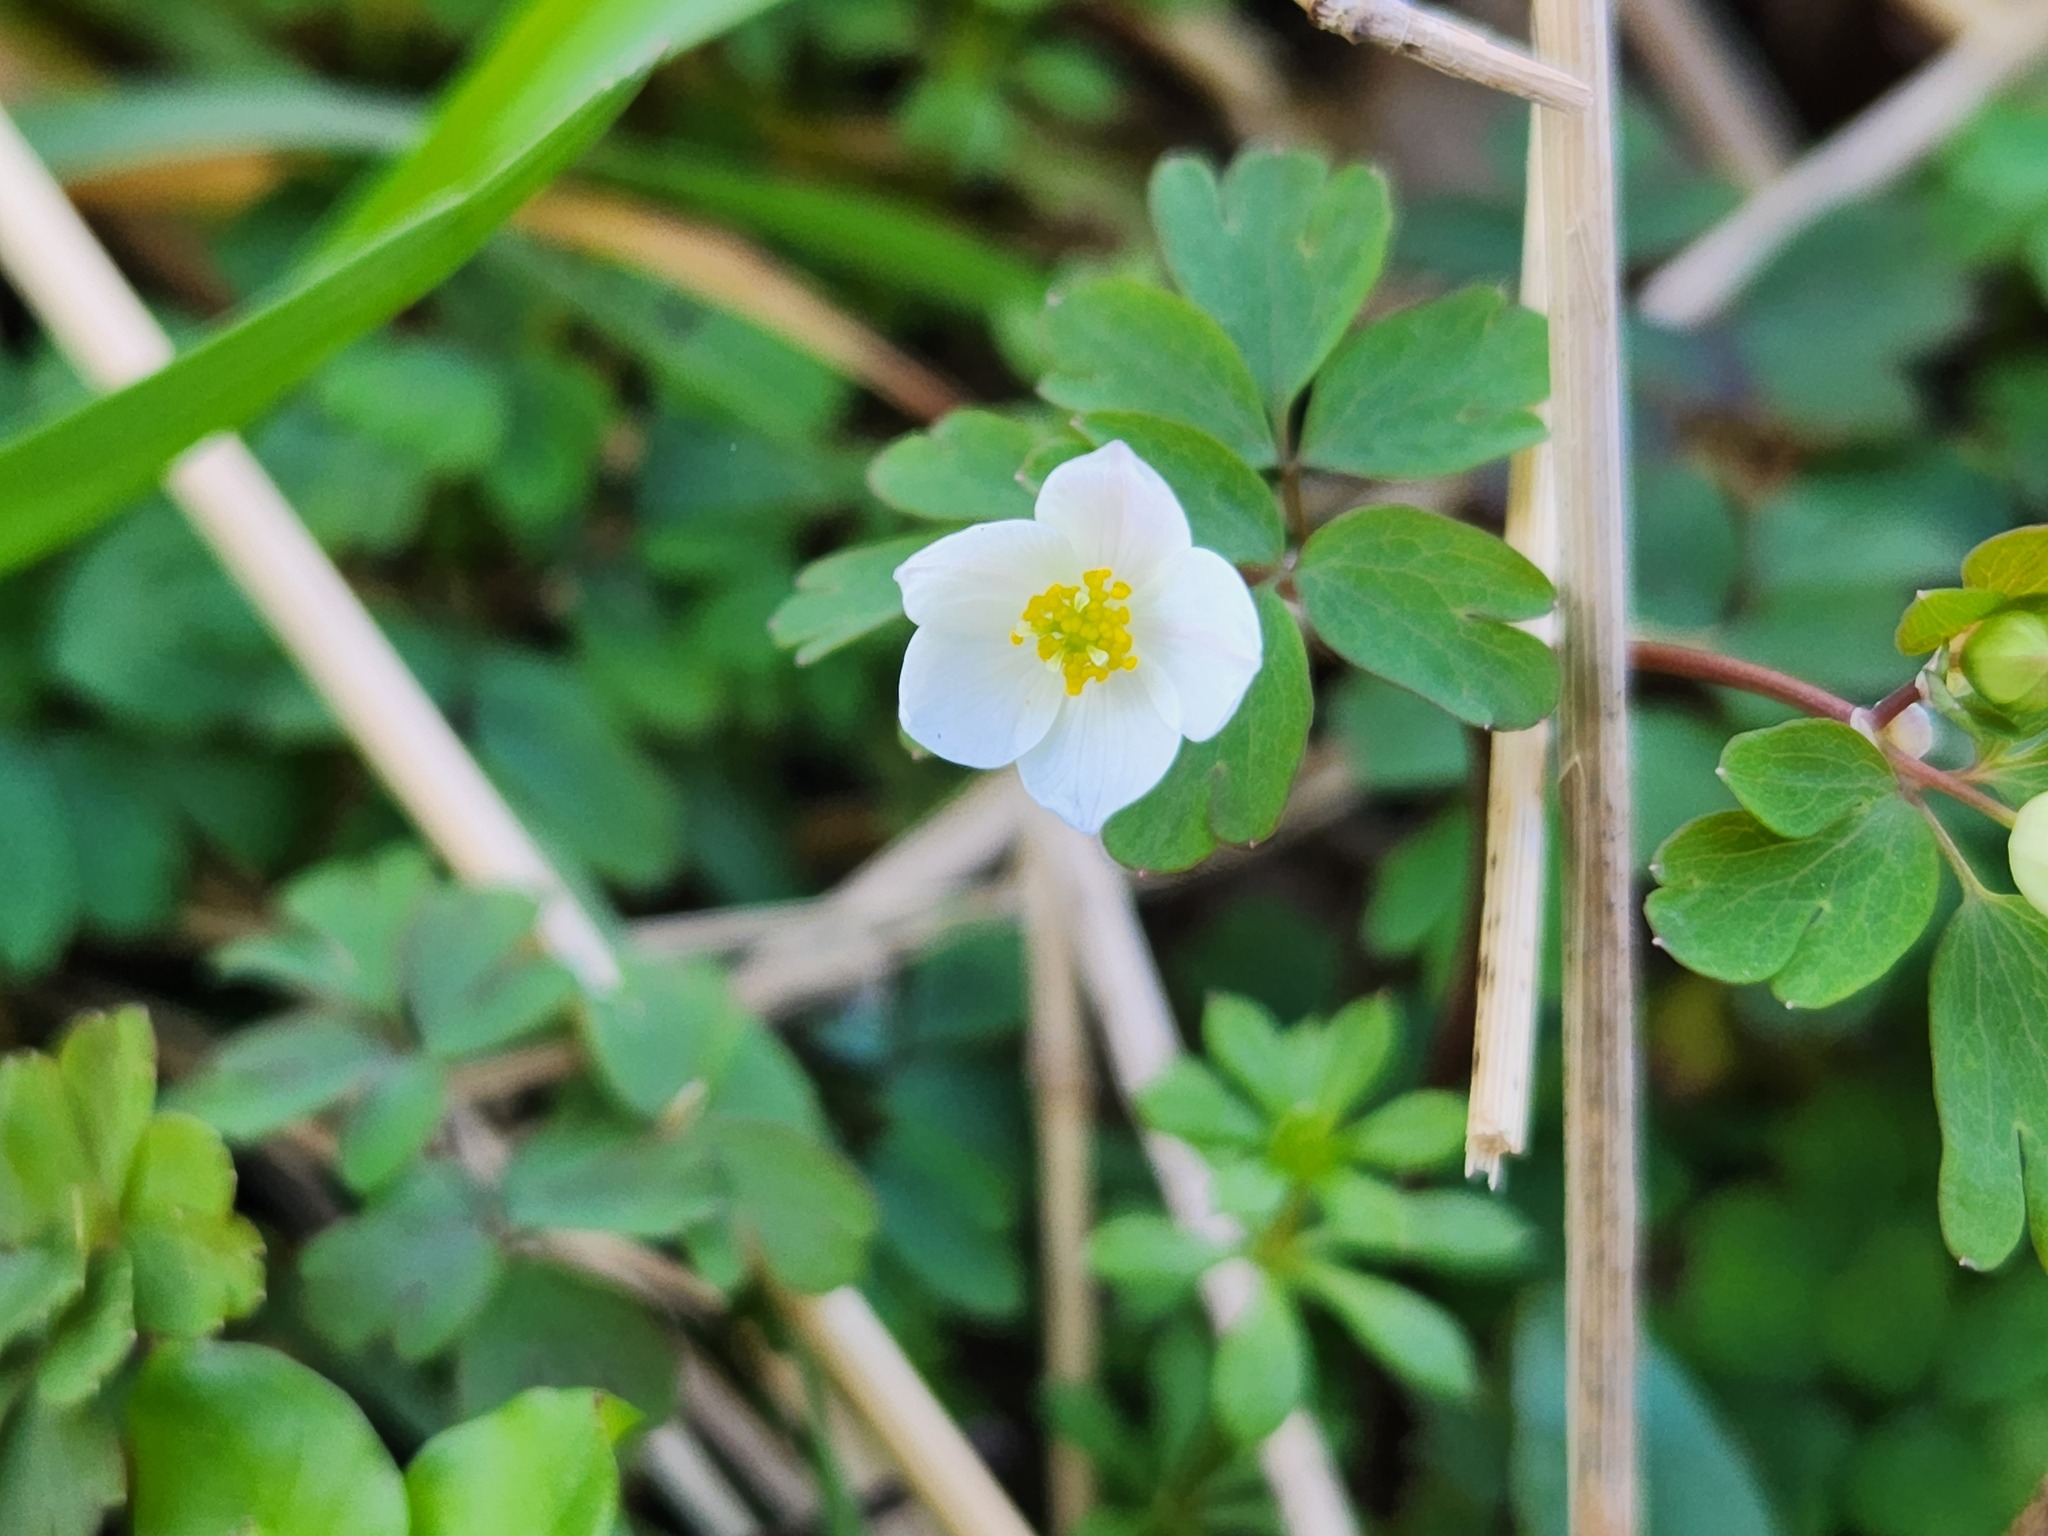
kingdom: Plantae
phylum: Tracheophyta
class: Magnoliopsida
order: Ranunculales
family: Ranunculaceae
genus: Enemion
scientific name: Enemion biternatum
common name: Eastern false rue-anemone
